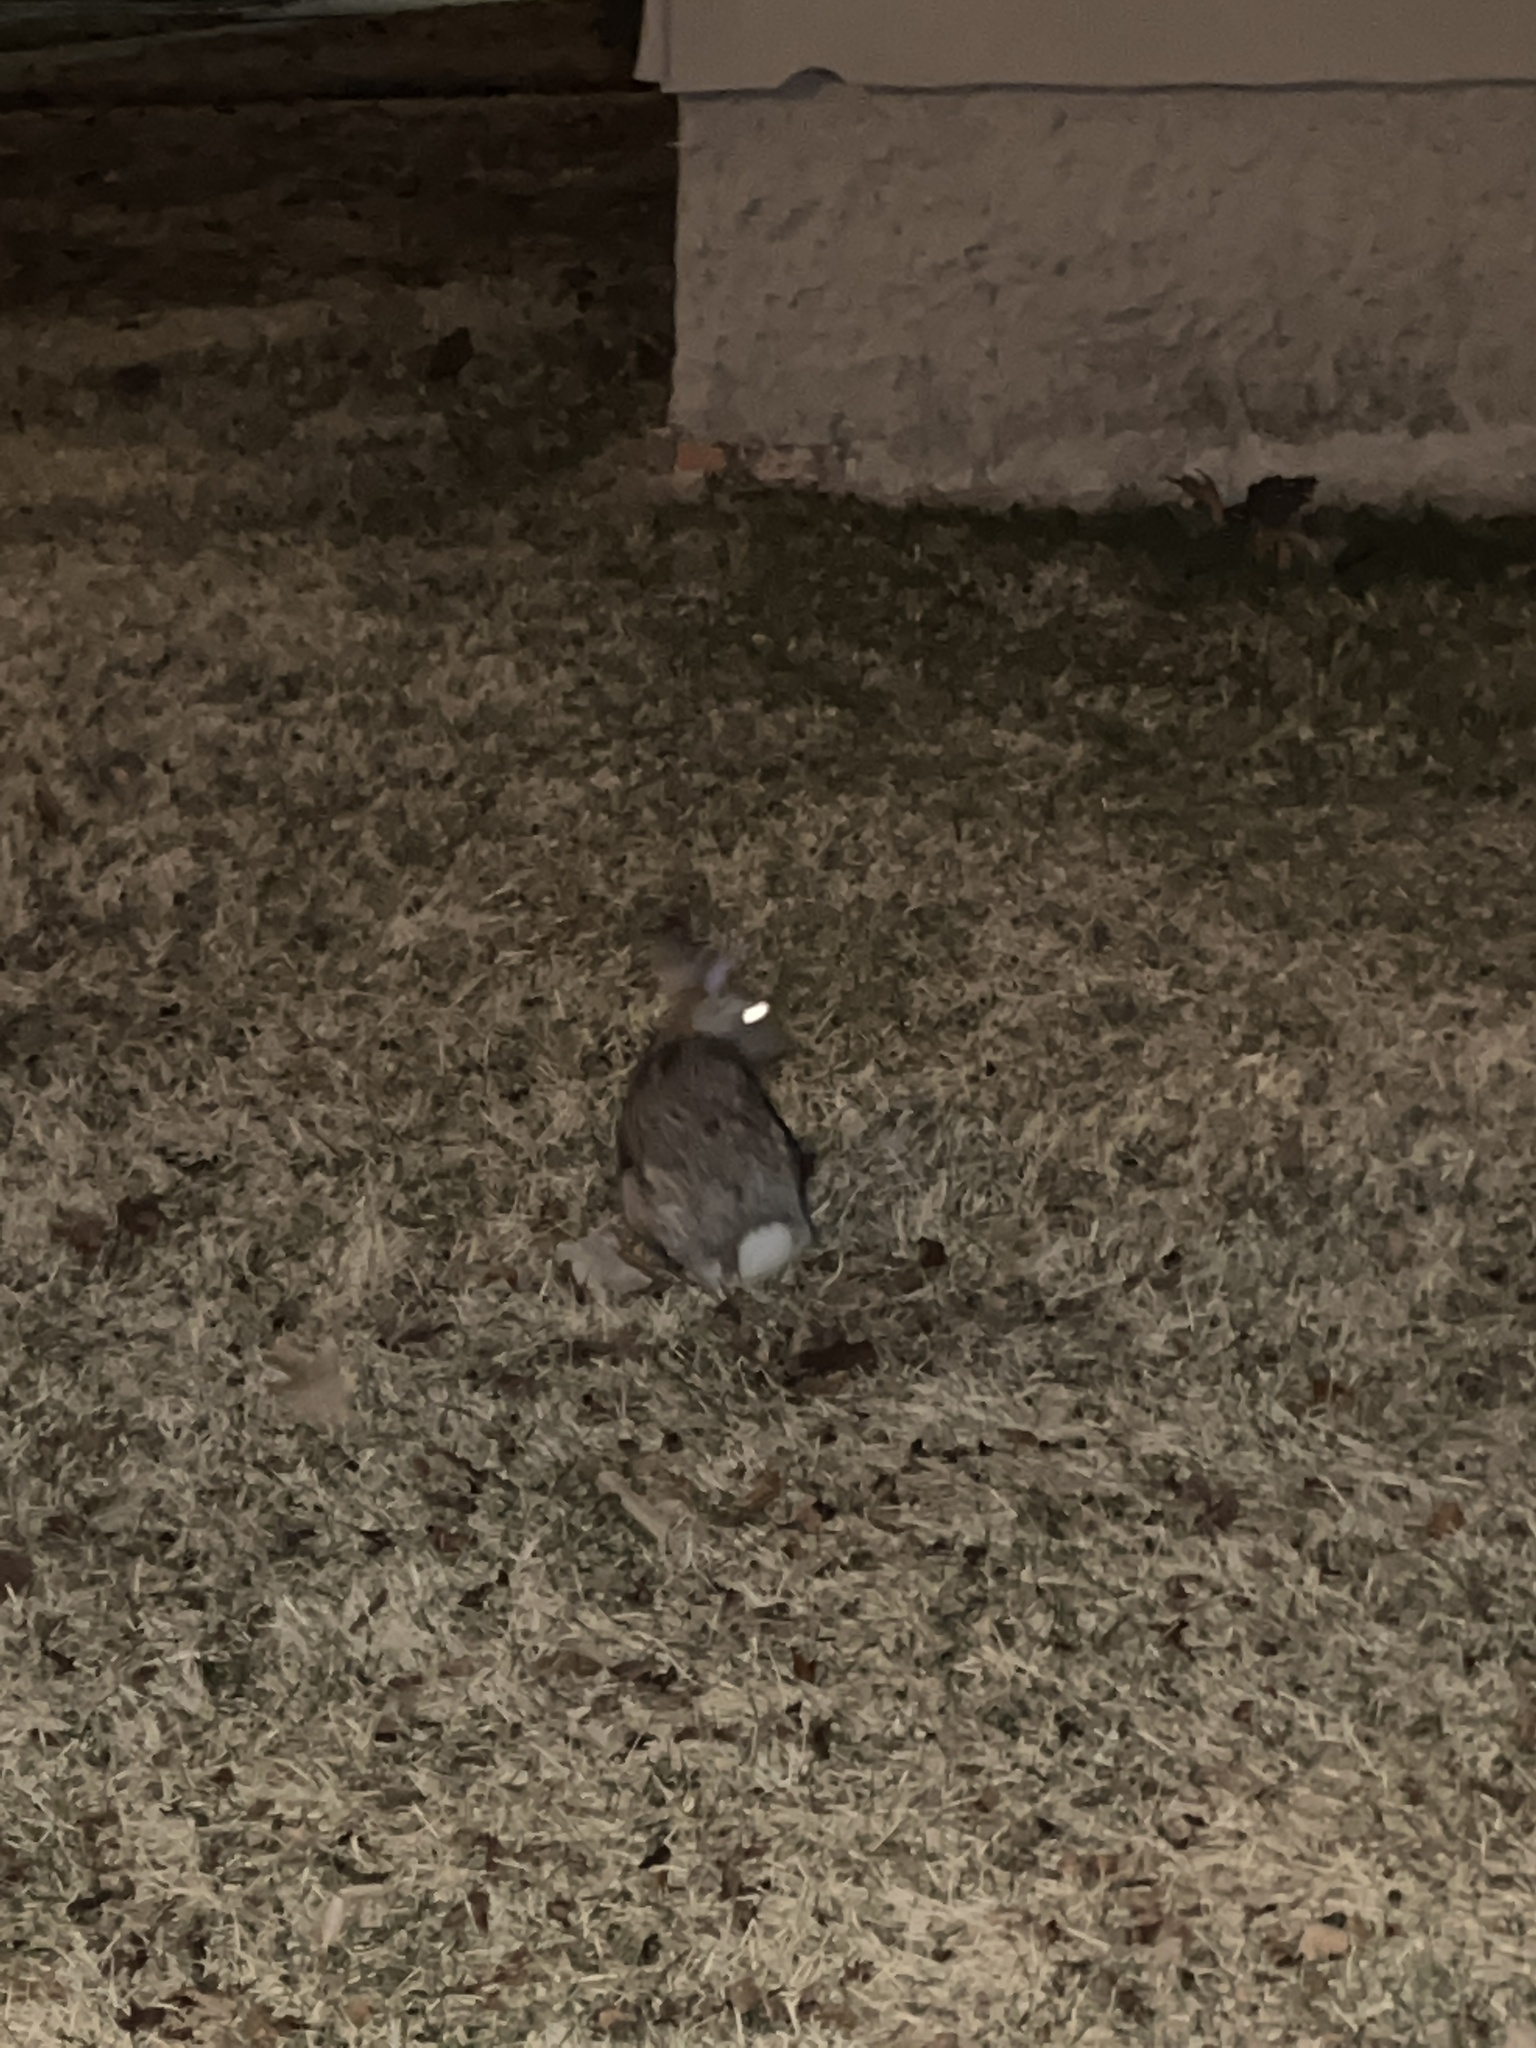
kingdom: Animalia
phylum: Chordata
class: Mammalia
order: Lagomorpha
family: Leporidae
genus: Sylvilagus
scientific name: Sylvilagus floridanus
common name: Eastern cottontail
